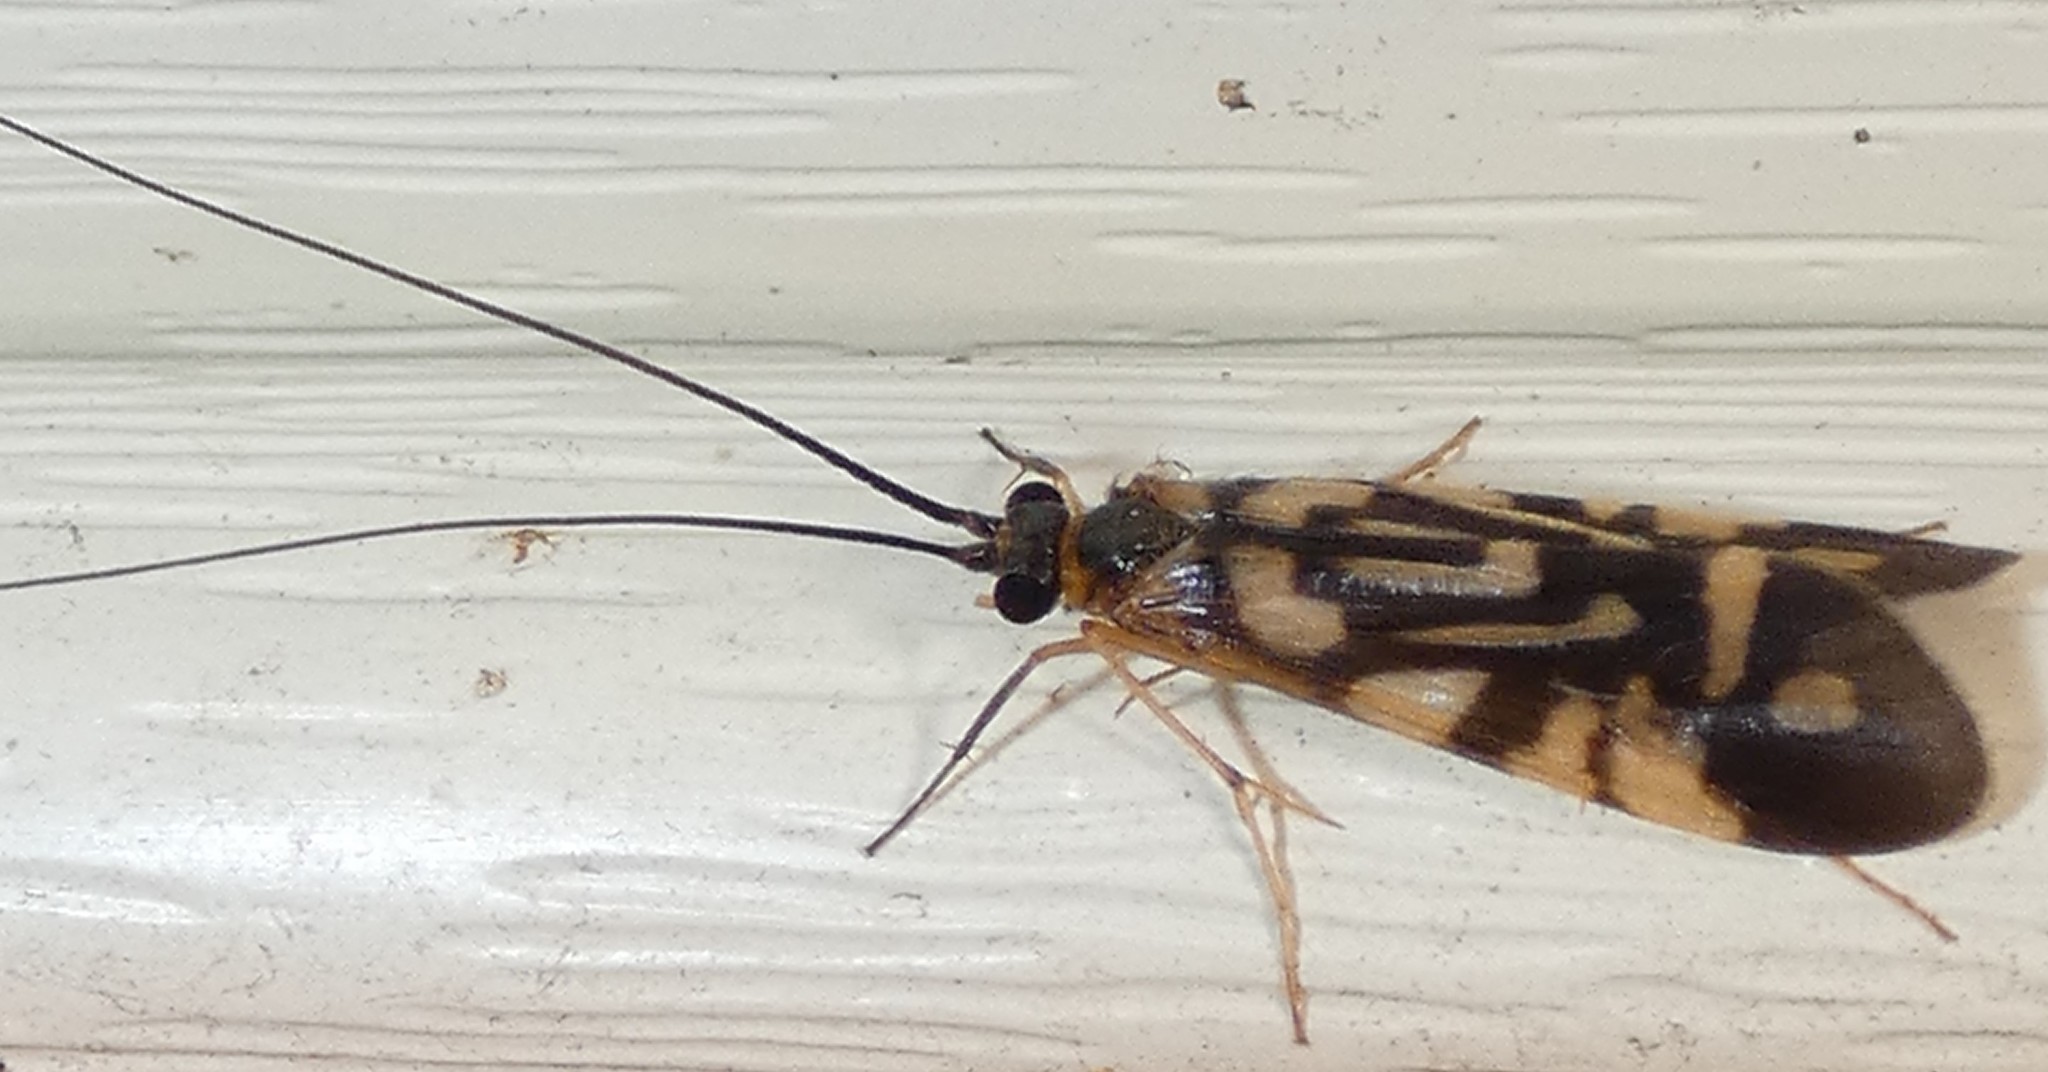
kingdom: Animalia
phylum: Arthropoda
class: Insecta
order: Trichoptera
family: Hydropsychidae
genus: Macrostemum
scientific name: Macrostemum carolina
